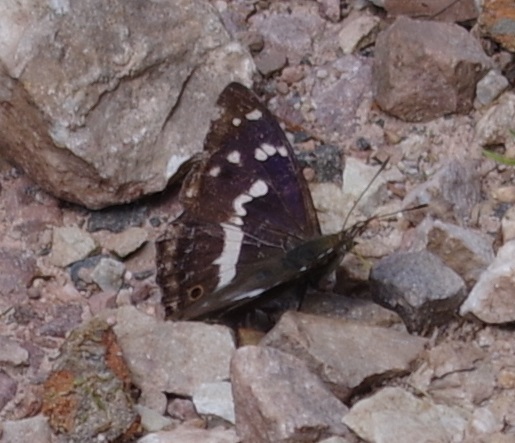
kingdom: Animalia
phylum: Arthropoda
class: Insecta
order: Lepidoptera
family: Nymphalidae
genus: Apatura
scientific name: Apatura iris
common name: Purple emperor
